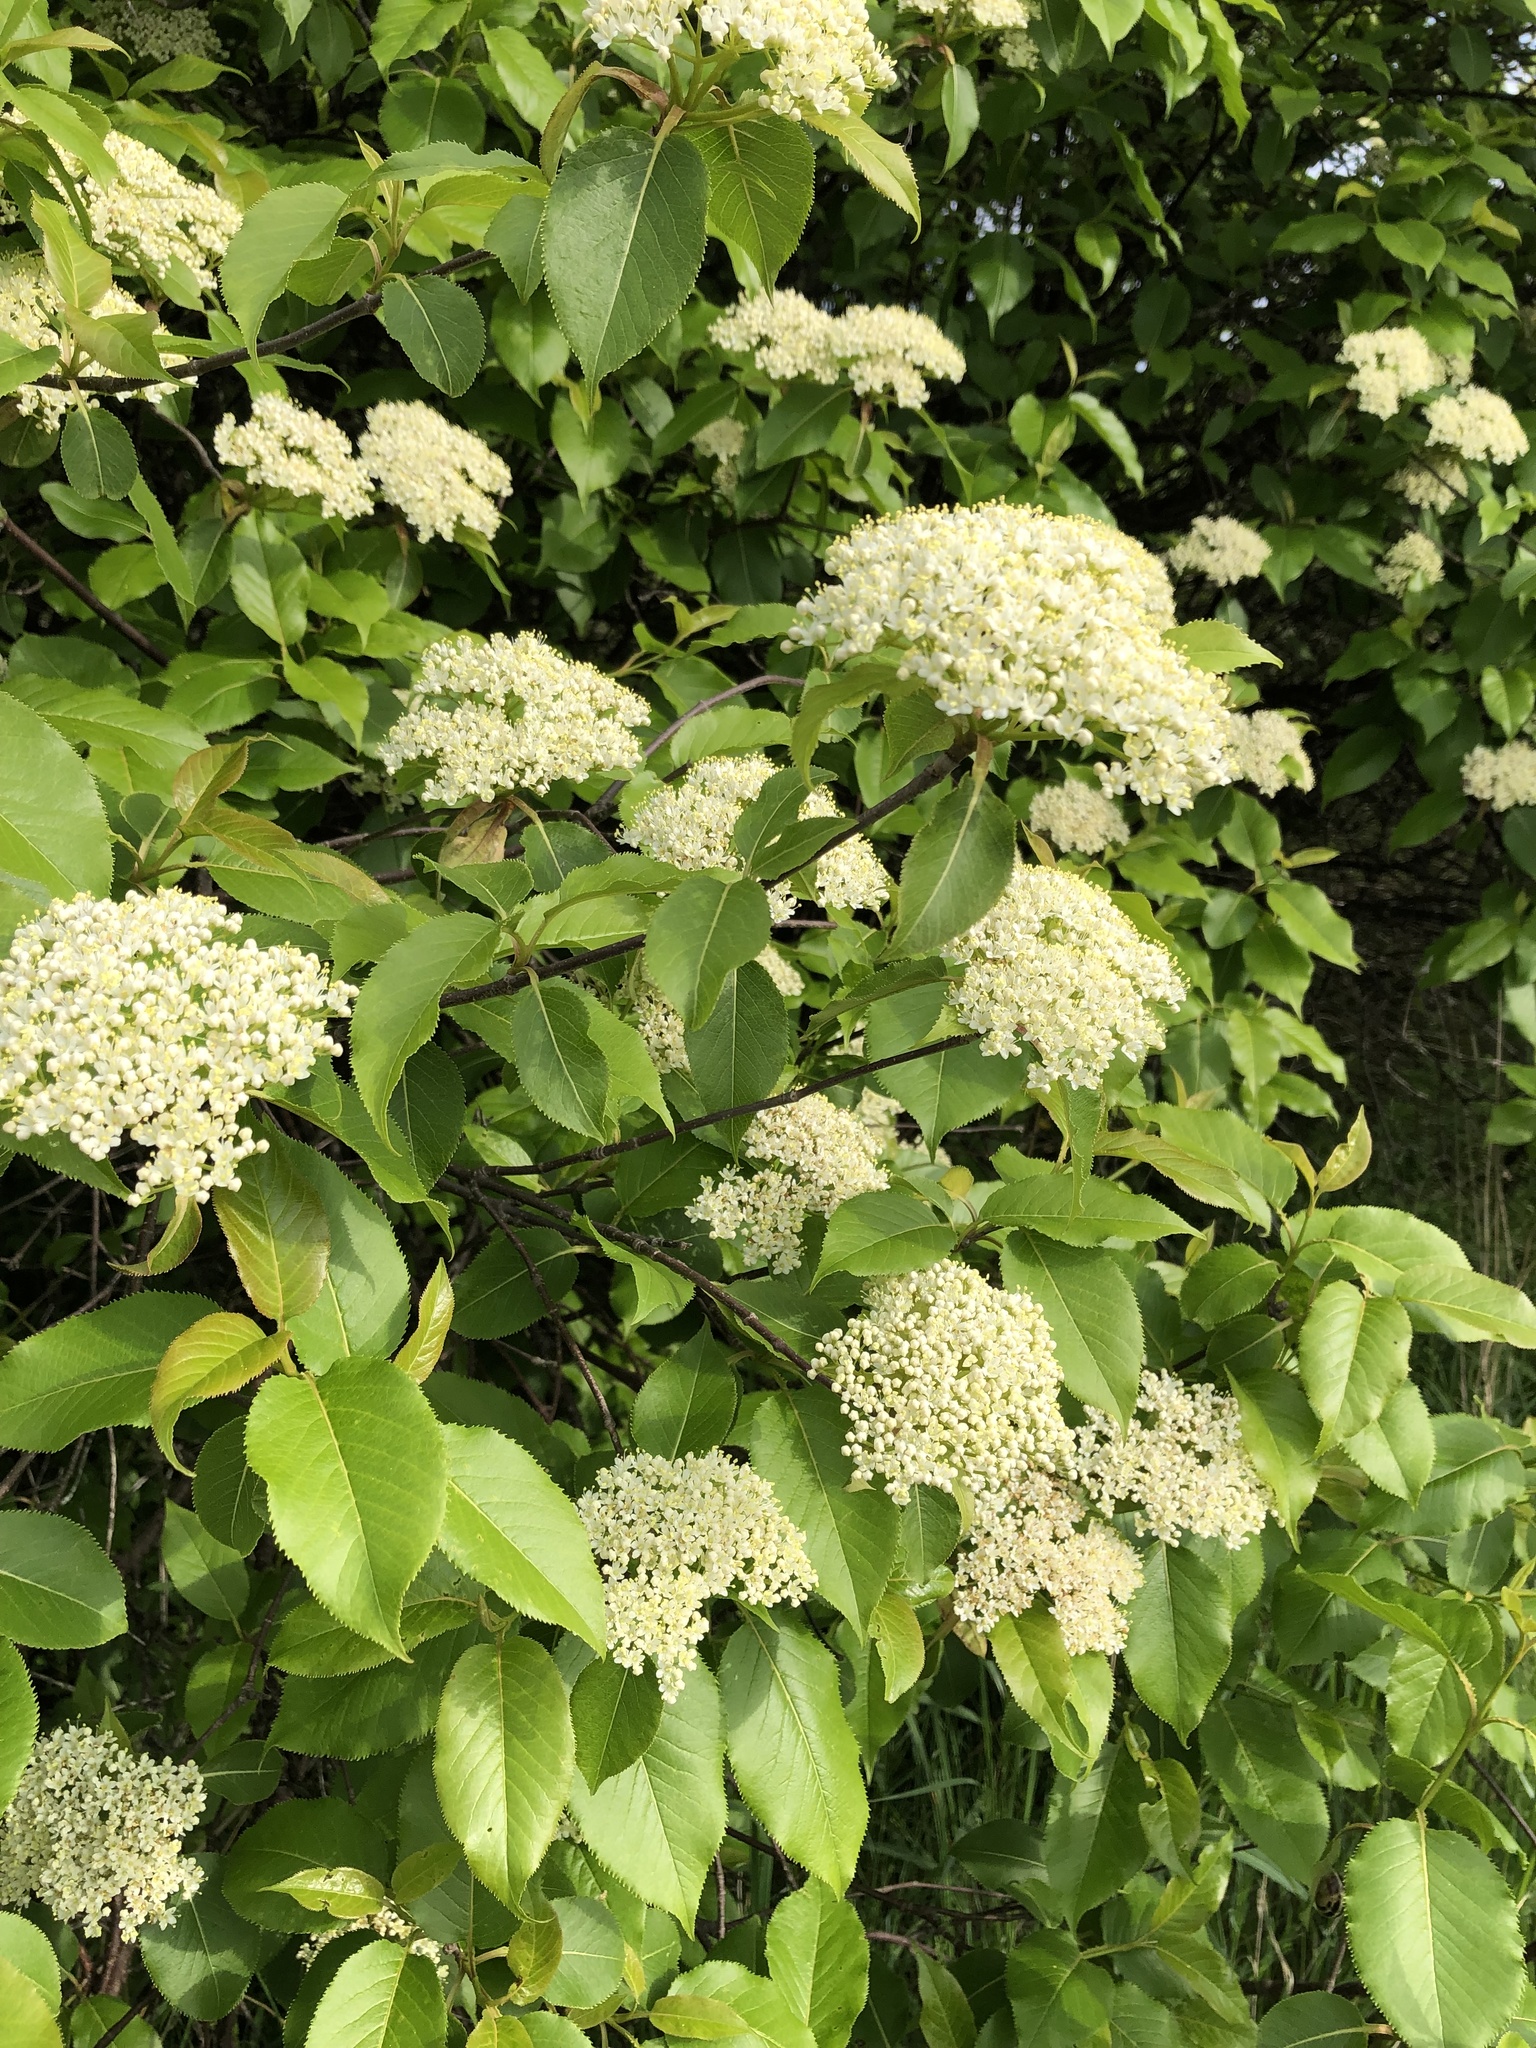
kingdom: Plantae
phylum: Tracheophyta
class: Magnoliopsida
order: Dipsacales
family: Viburnaceae
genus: Viburnum
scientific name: Viburnum lentago
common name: Black haw
